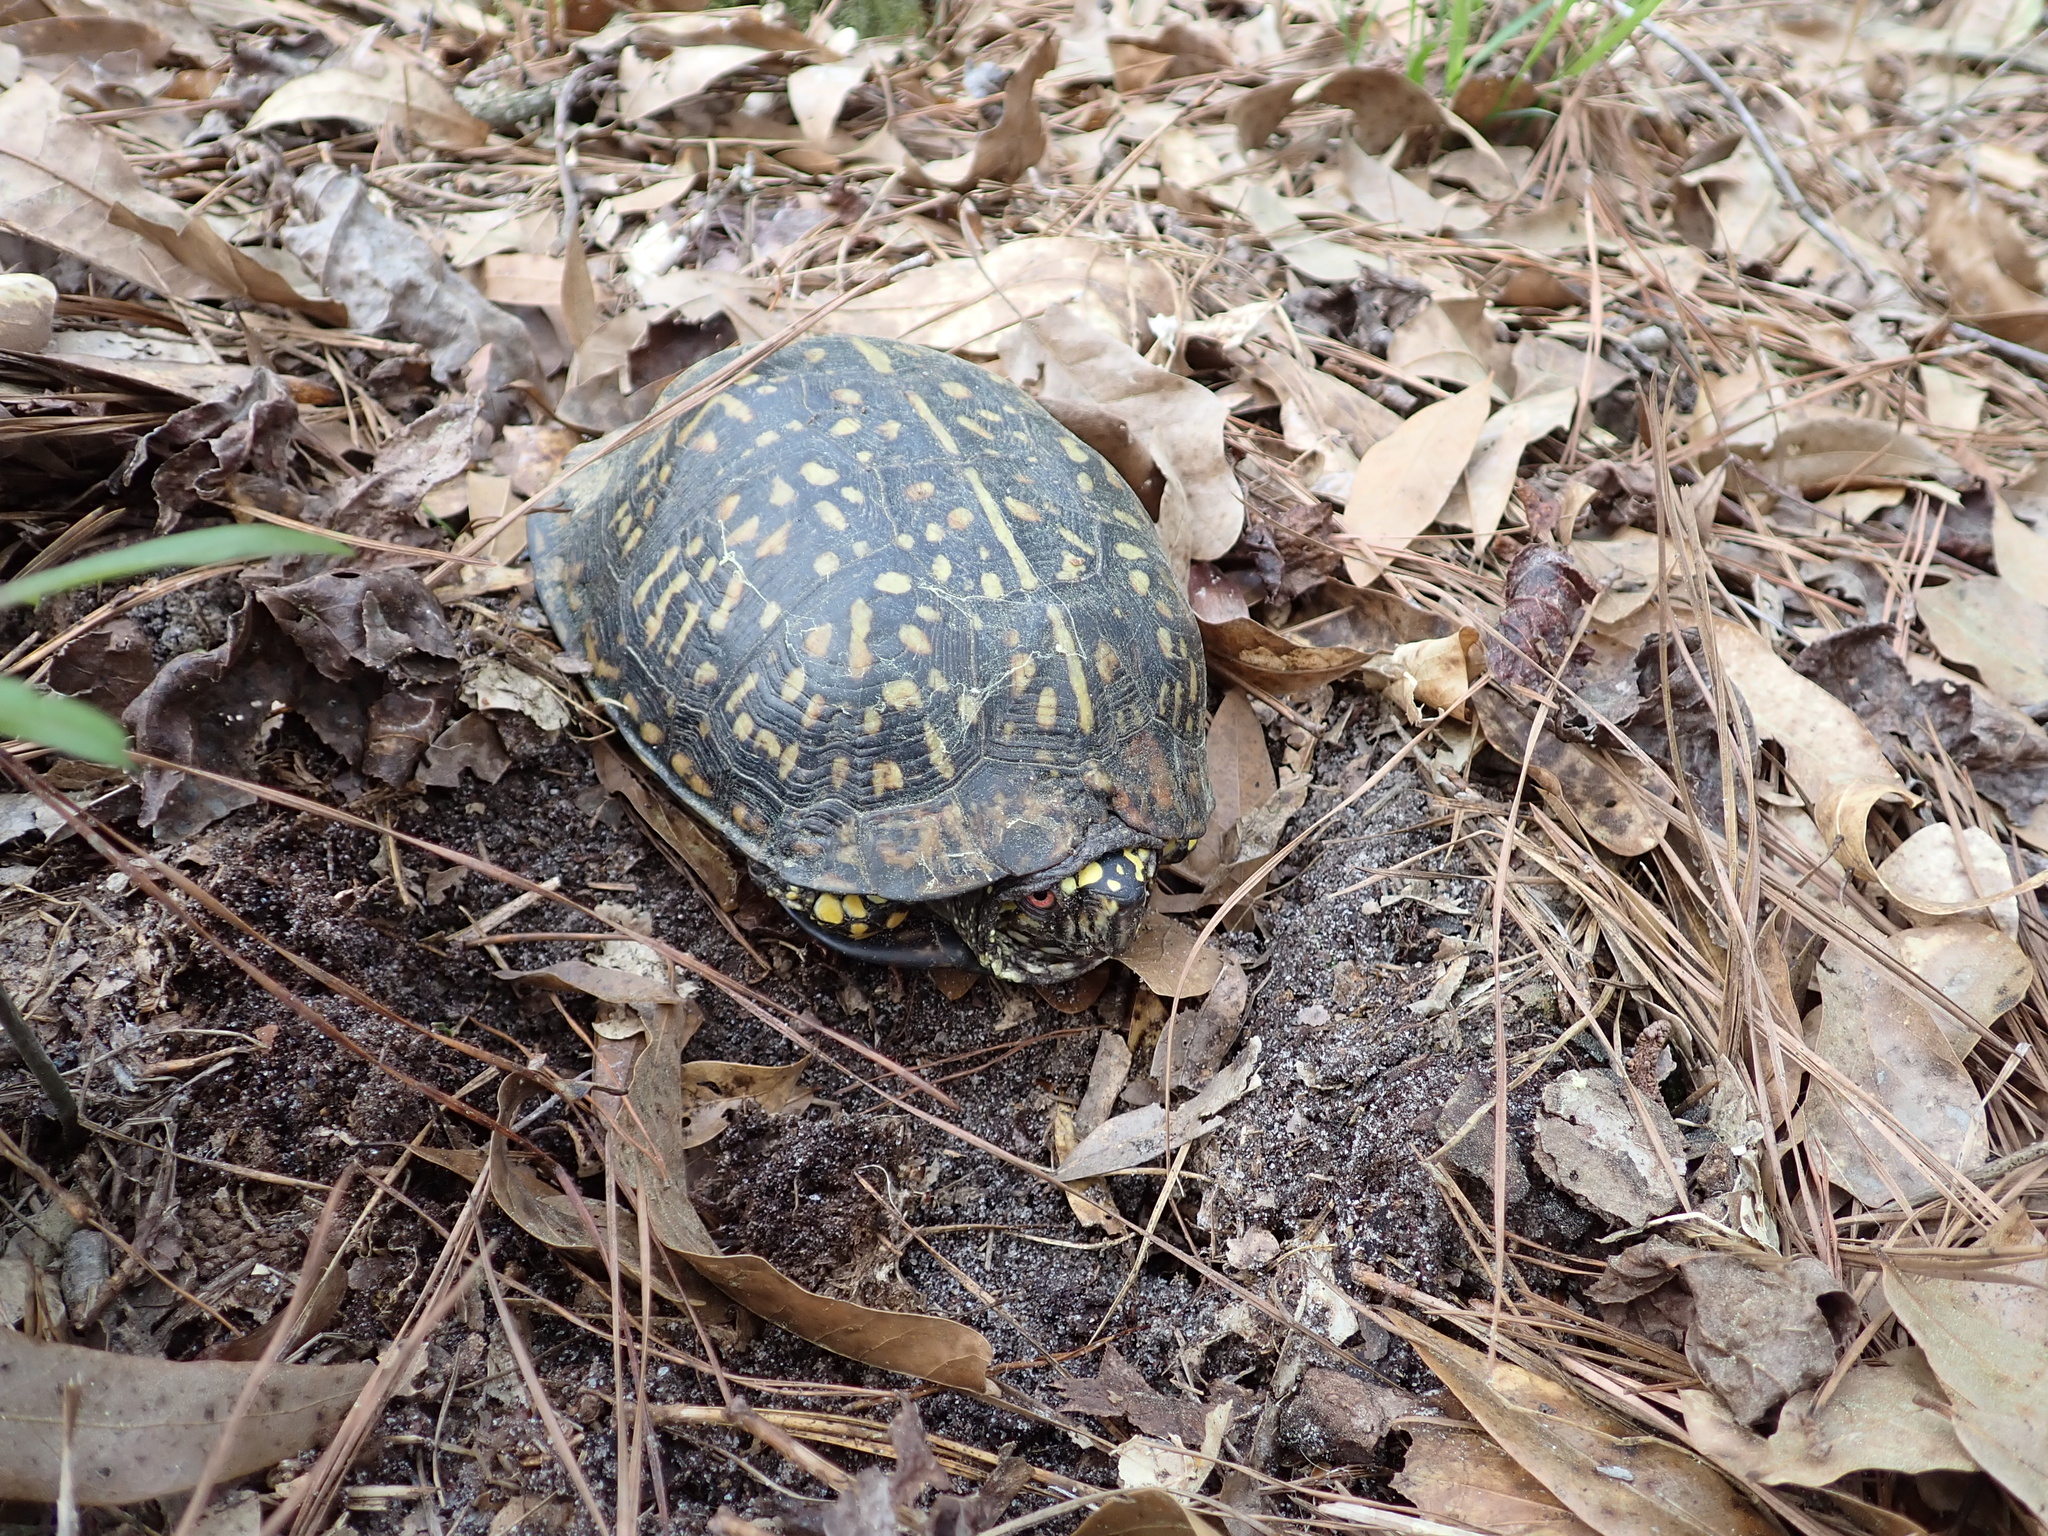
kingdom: Animalia
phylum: Chordata
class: Testudines
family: Emydidae
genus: Terrapene
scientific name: Terrapene carolina
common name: Common box turtle
